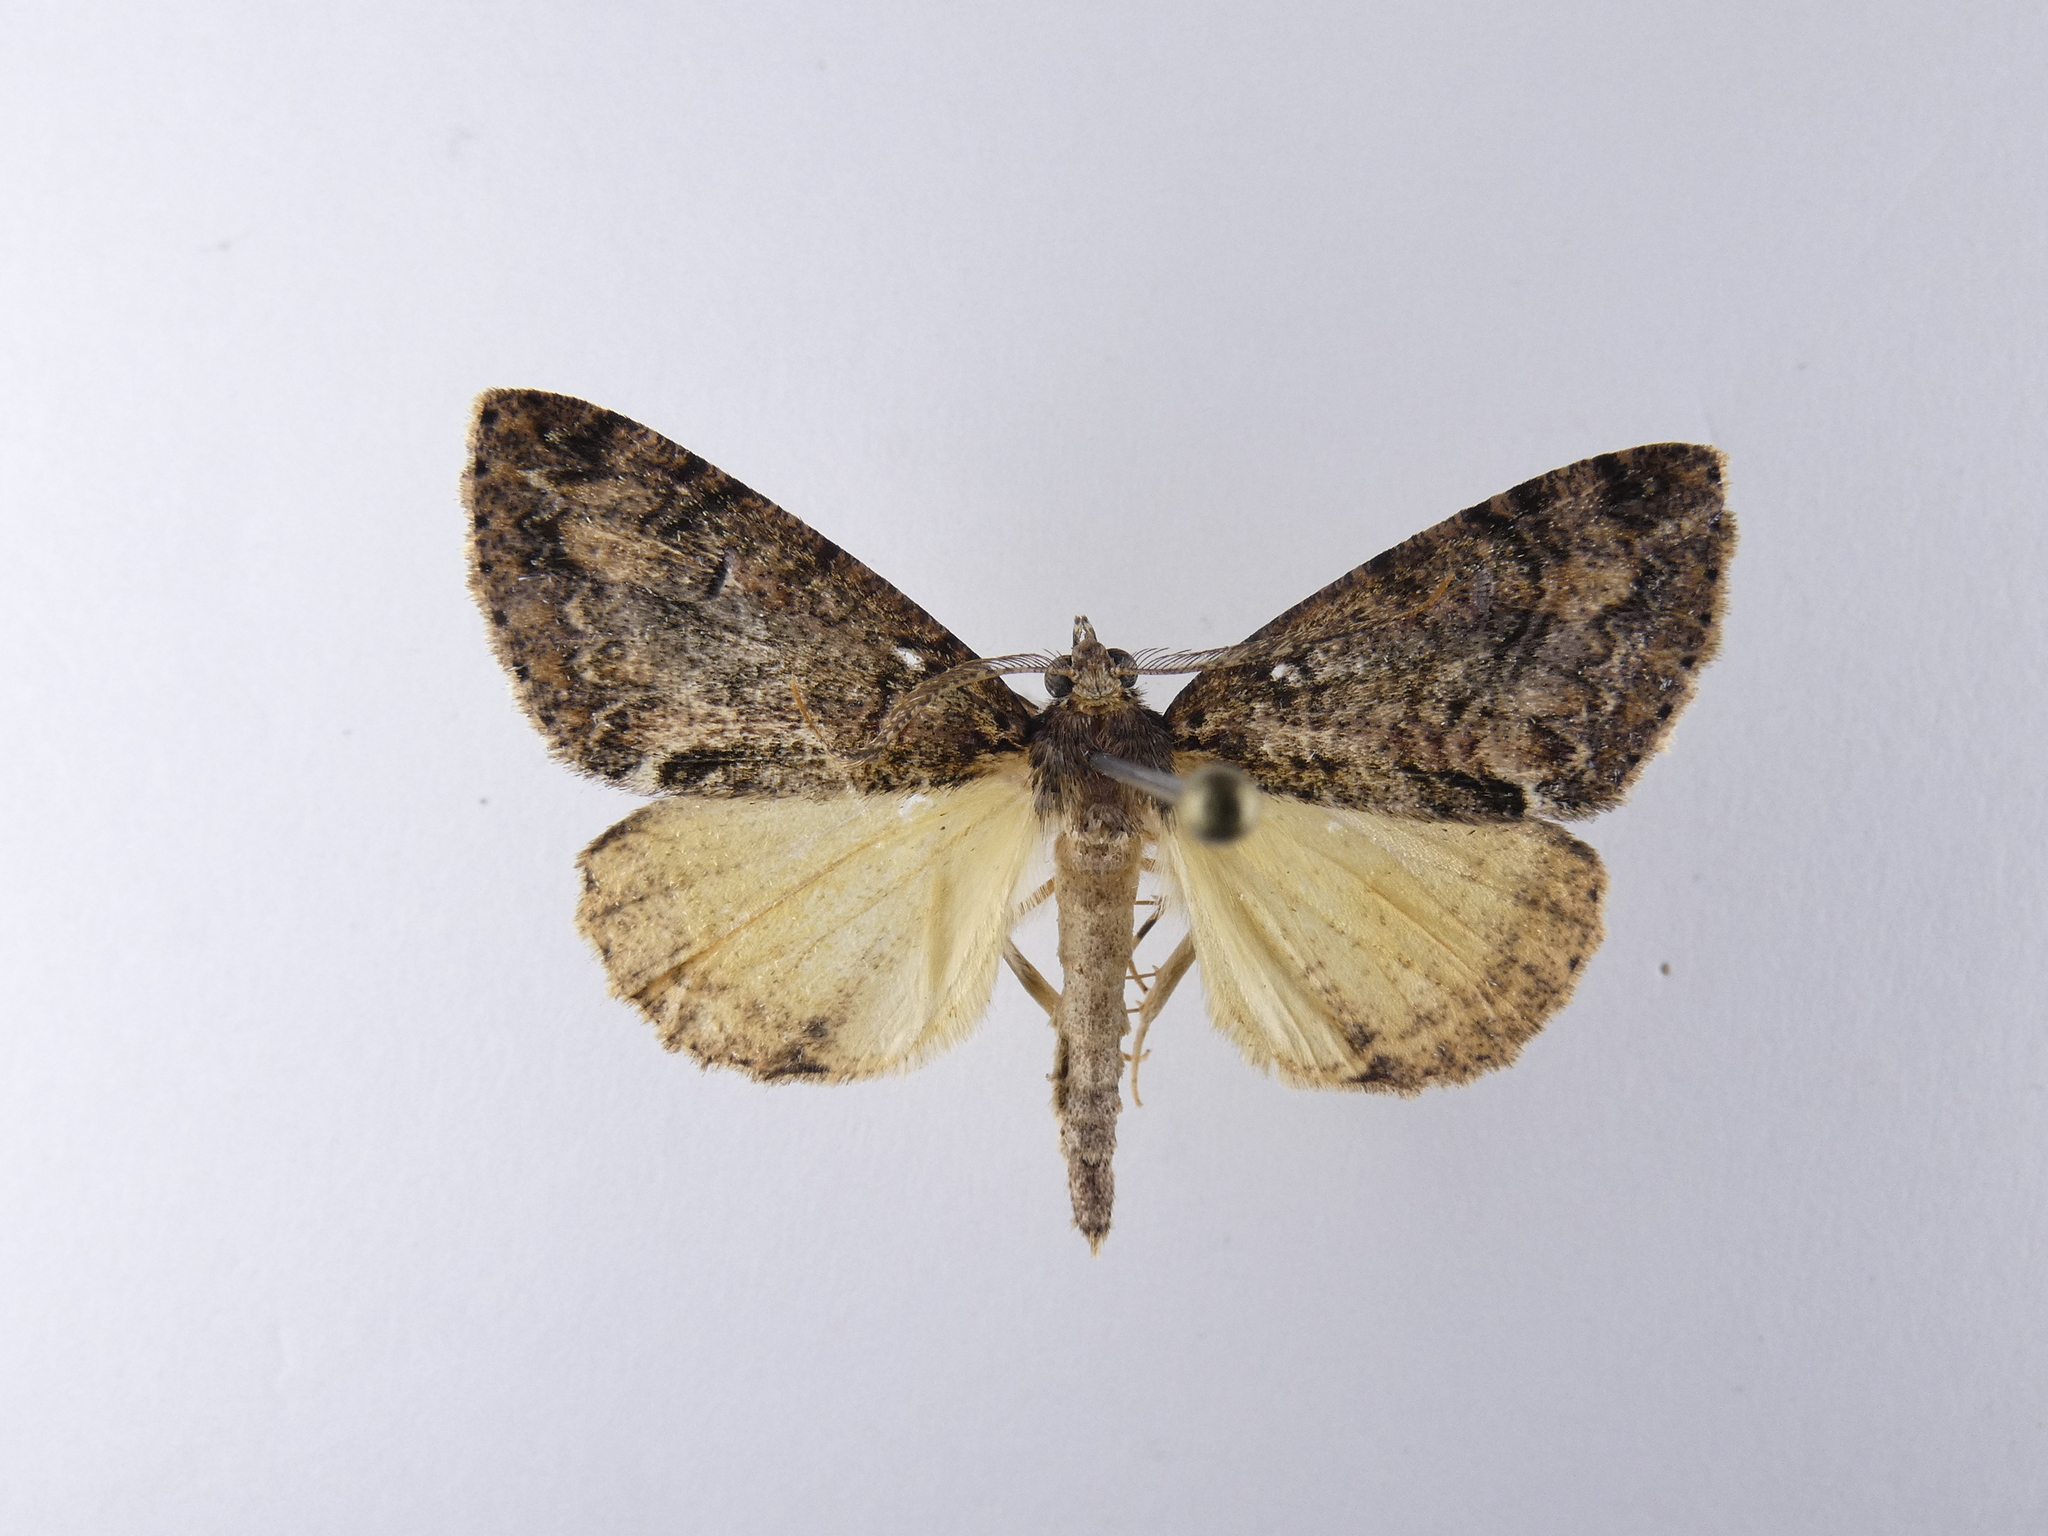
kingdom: Animalia
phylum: Arthropoda
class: Insecta
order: Lepidoptera
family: Geometridae
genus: Pseudocoremia
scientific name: Pseudocoremia suavis
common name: Common forest looper
